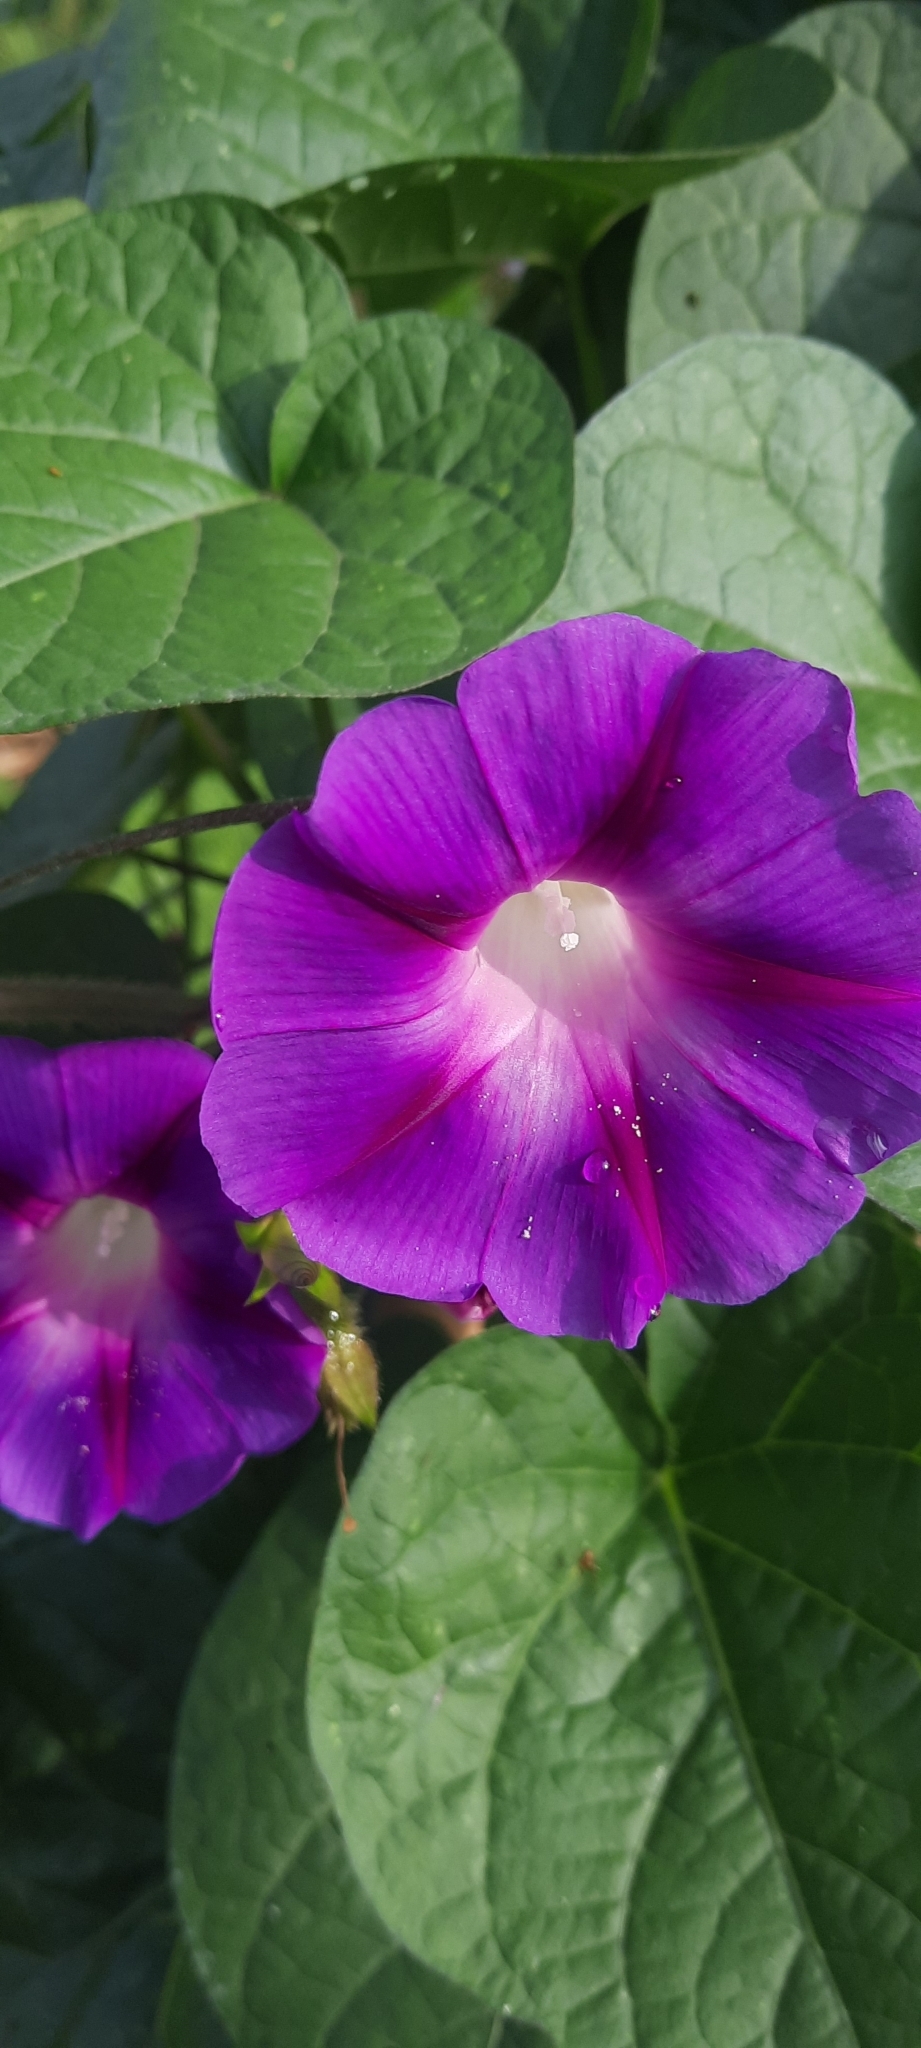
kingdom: Plantae
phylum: Tracheophyta
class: Magnoliopsida
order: Solanales
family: Convolvulaceae
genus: Ipomoea
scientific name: Ipomoea purpurea
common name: Common morning-glory
